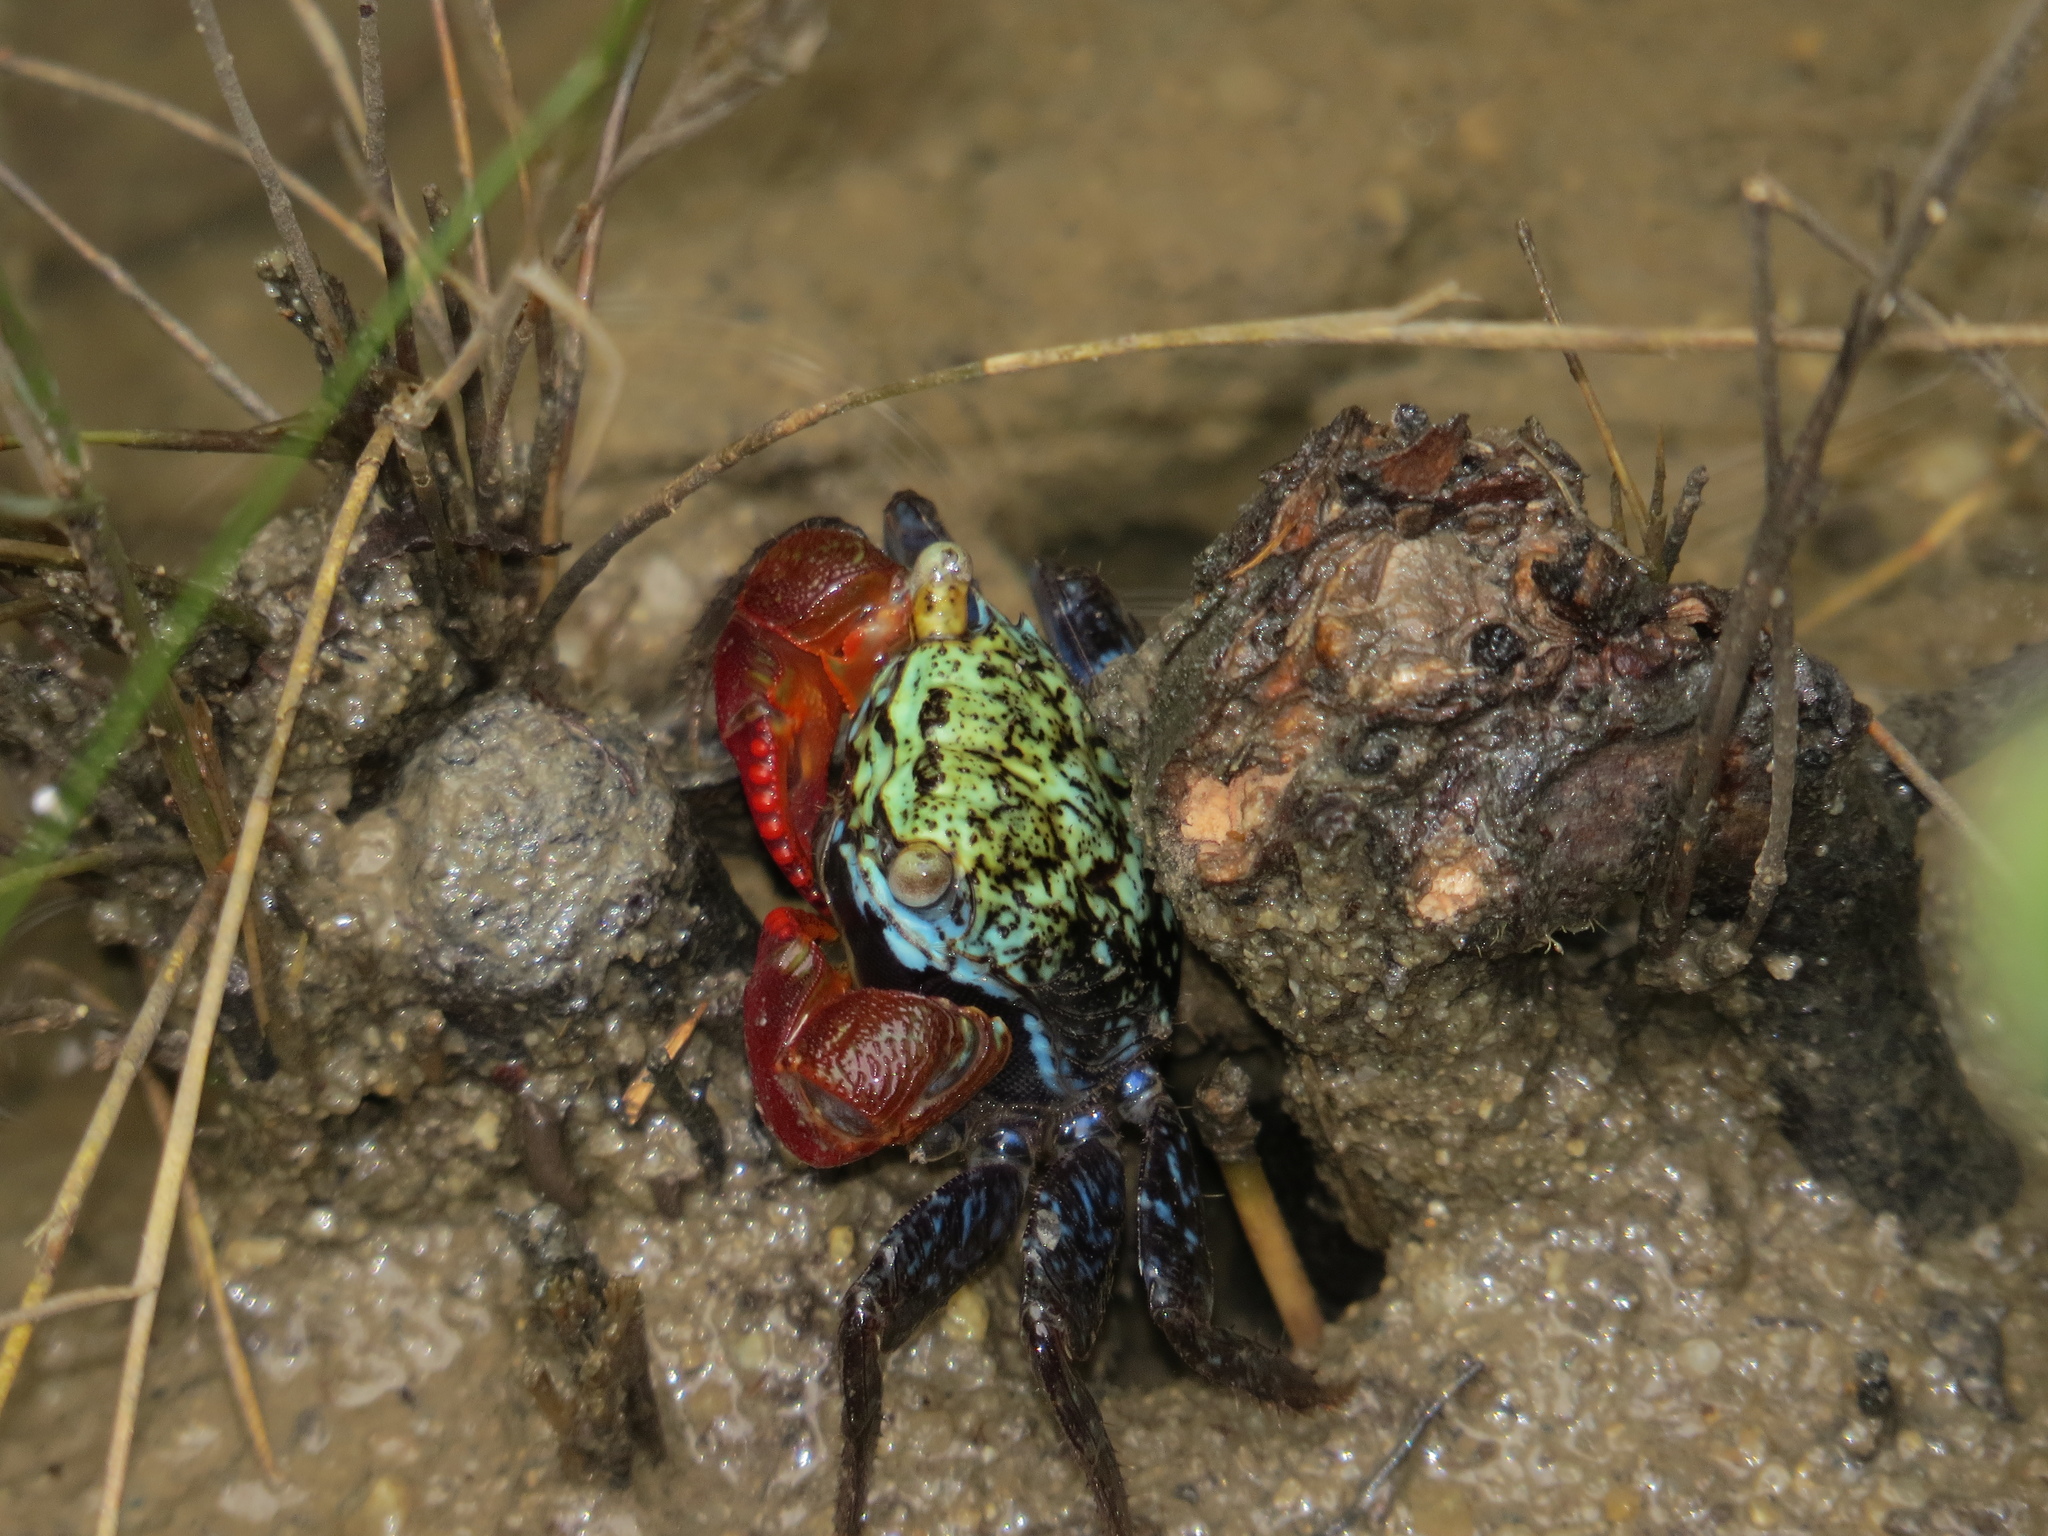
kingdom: Animalia
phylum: Arthropoda
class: Malacostraca
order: Decapoda
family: Sesarmidae
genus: Parasesarma
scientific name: Parasesarma brevicristatum
